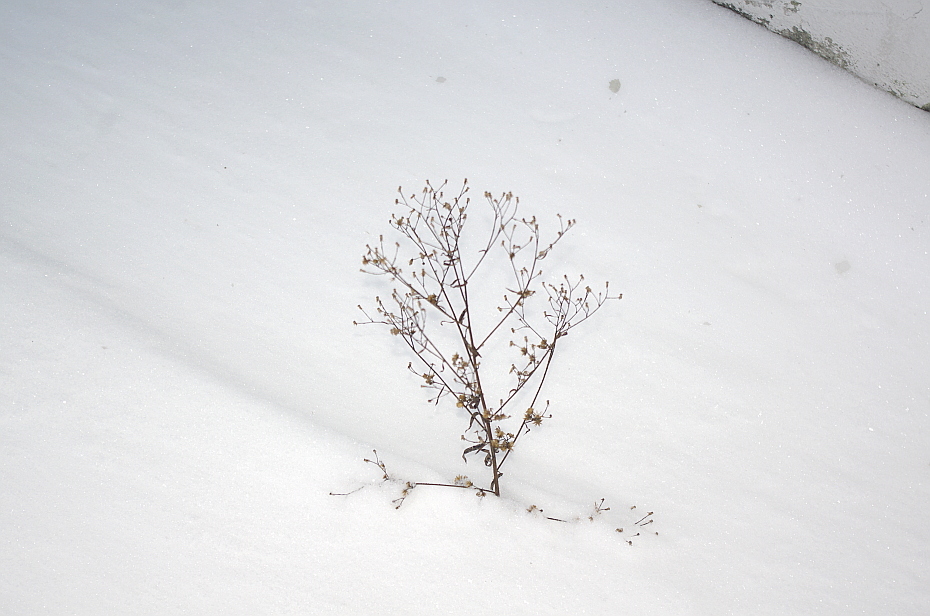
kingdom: Plantae
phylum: Tracheophyta
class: Magnoliopsida
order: Asterales
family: Asteraceae
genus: Erigeron
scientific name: Erigeron canadensis
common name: Canadian fleabane
